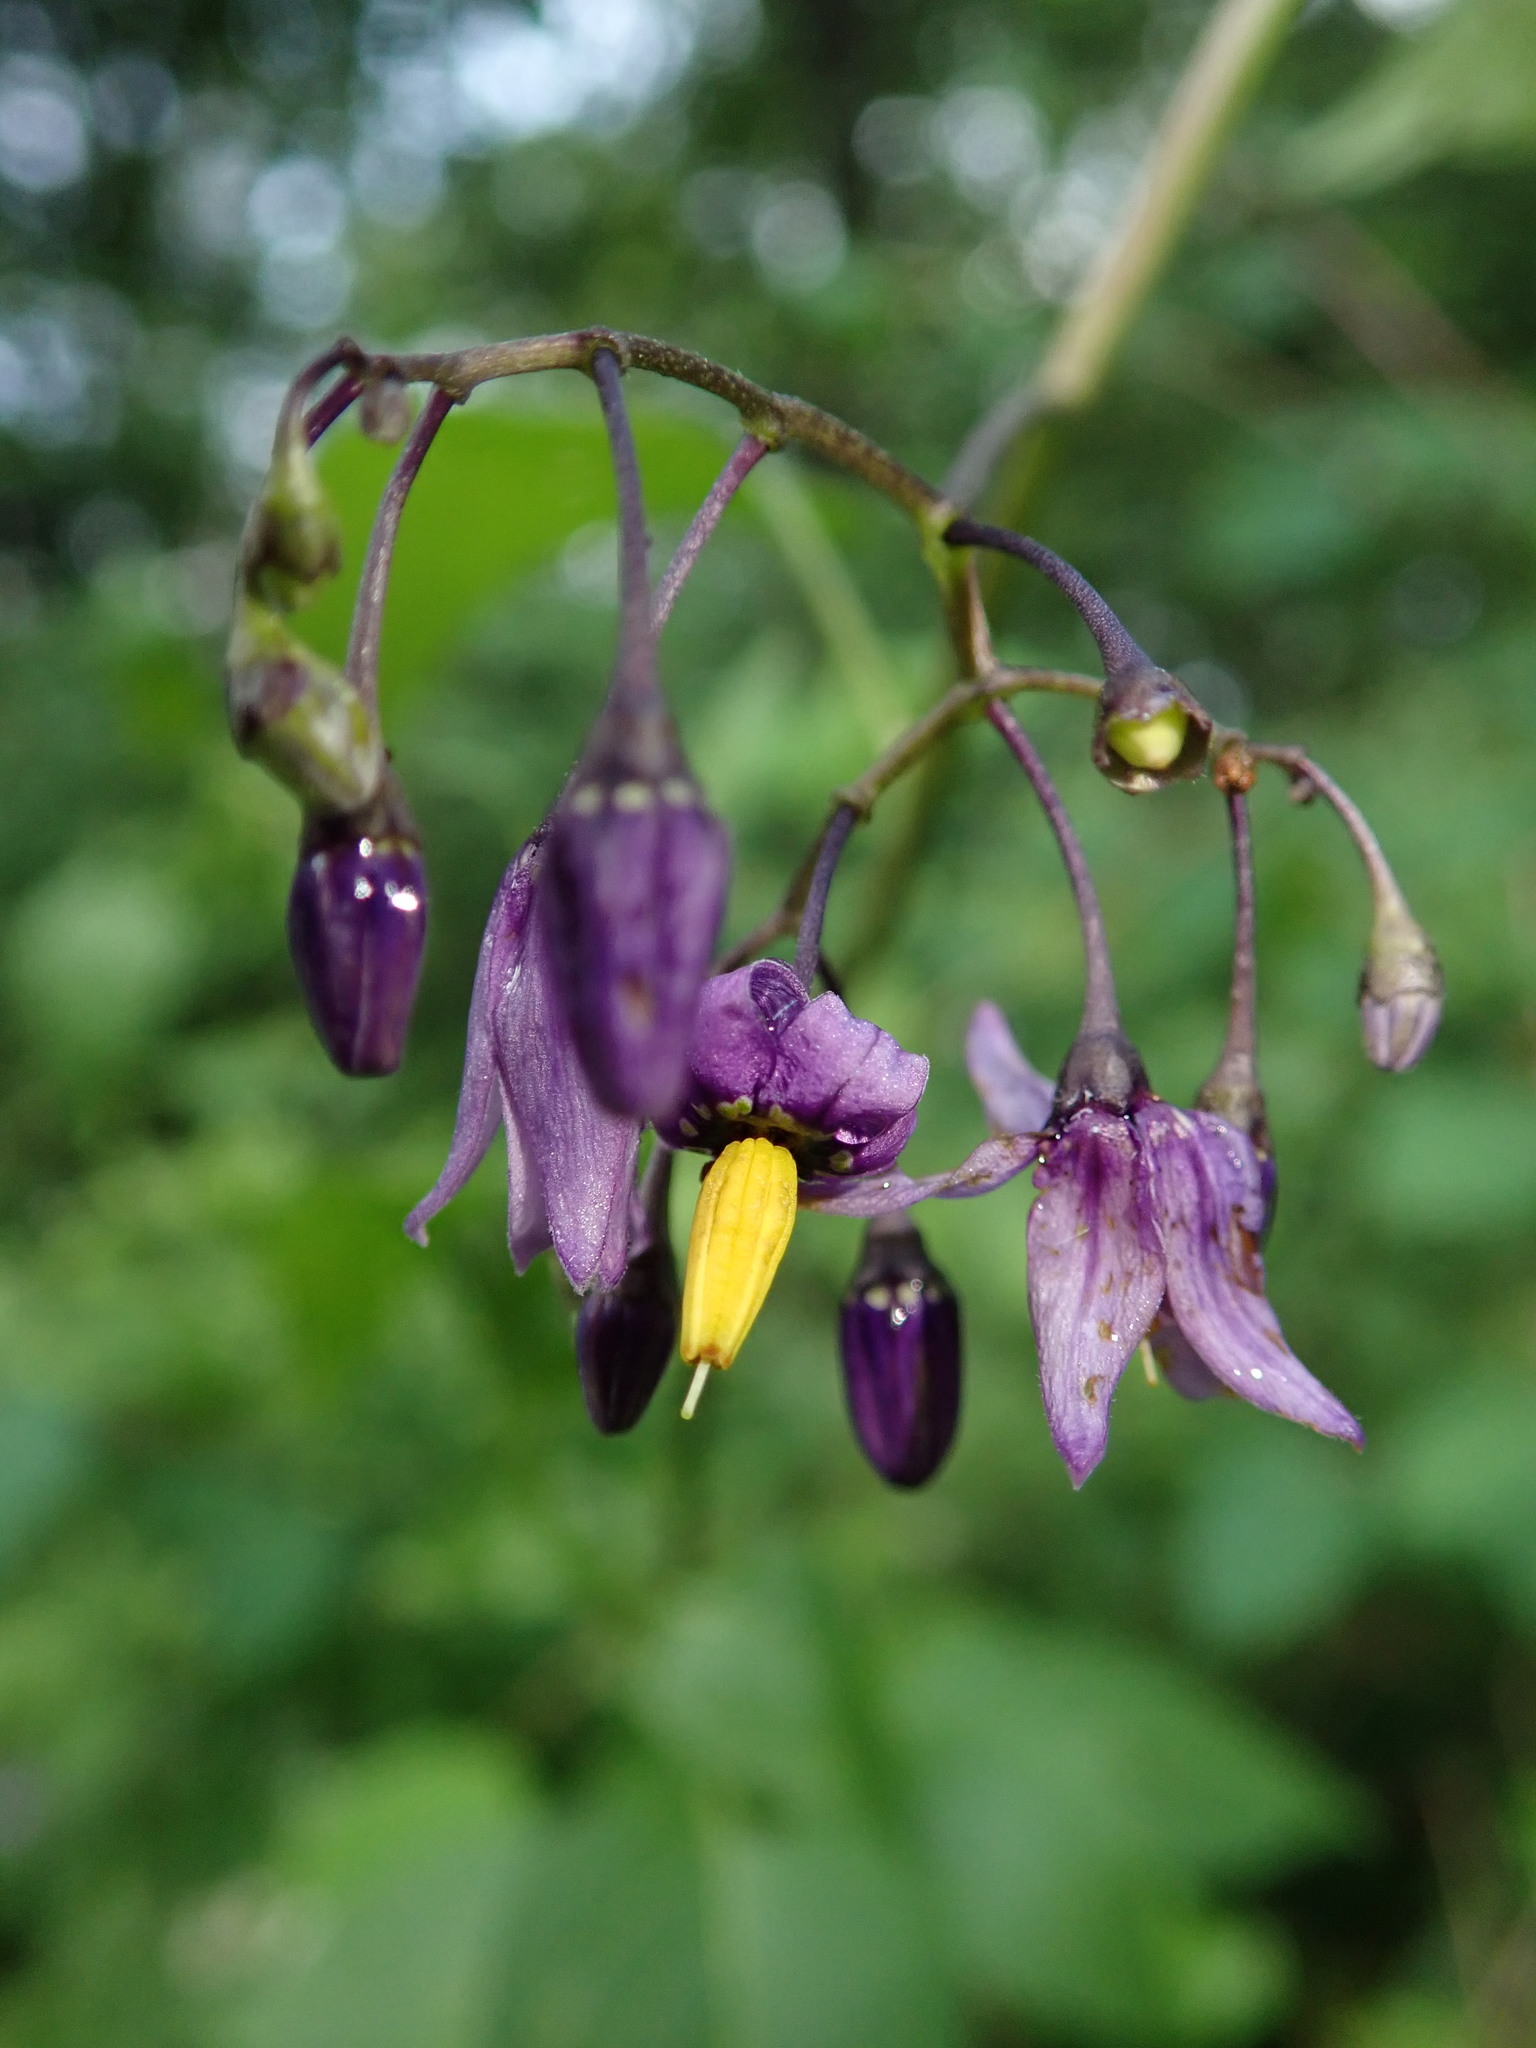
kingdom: Plantae
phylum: Tracheophyta
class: Magnoliopsida
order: Solanales
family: Solanaceae
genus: Solanum
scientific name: Solanum dulcamara
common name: Climbing nightshade
